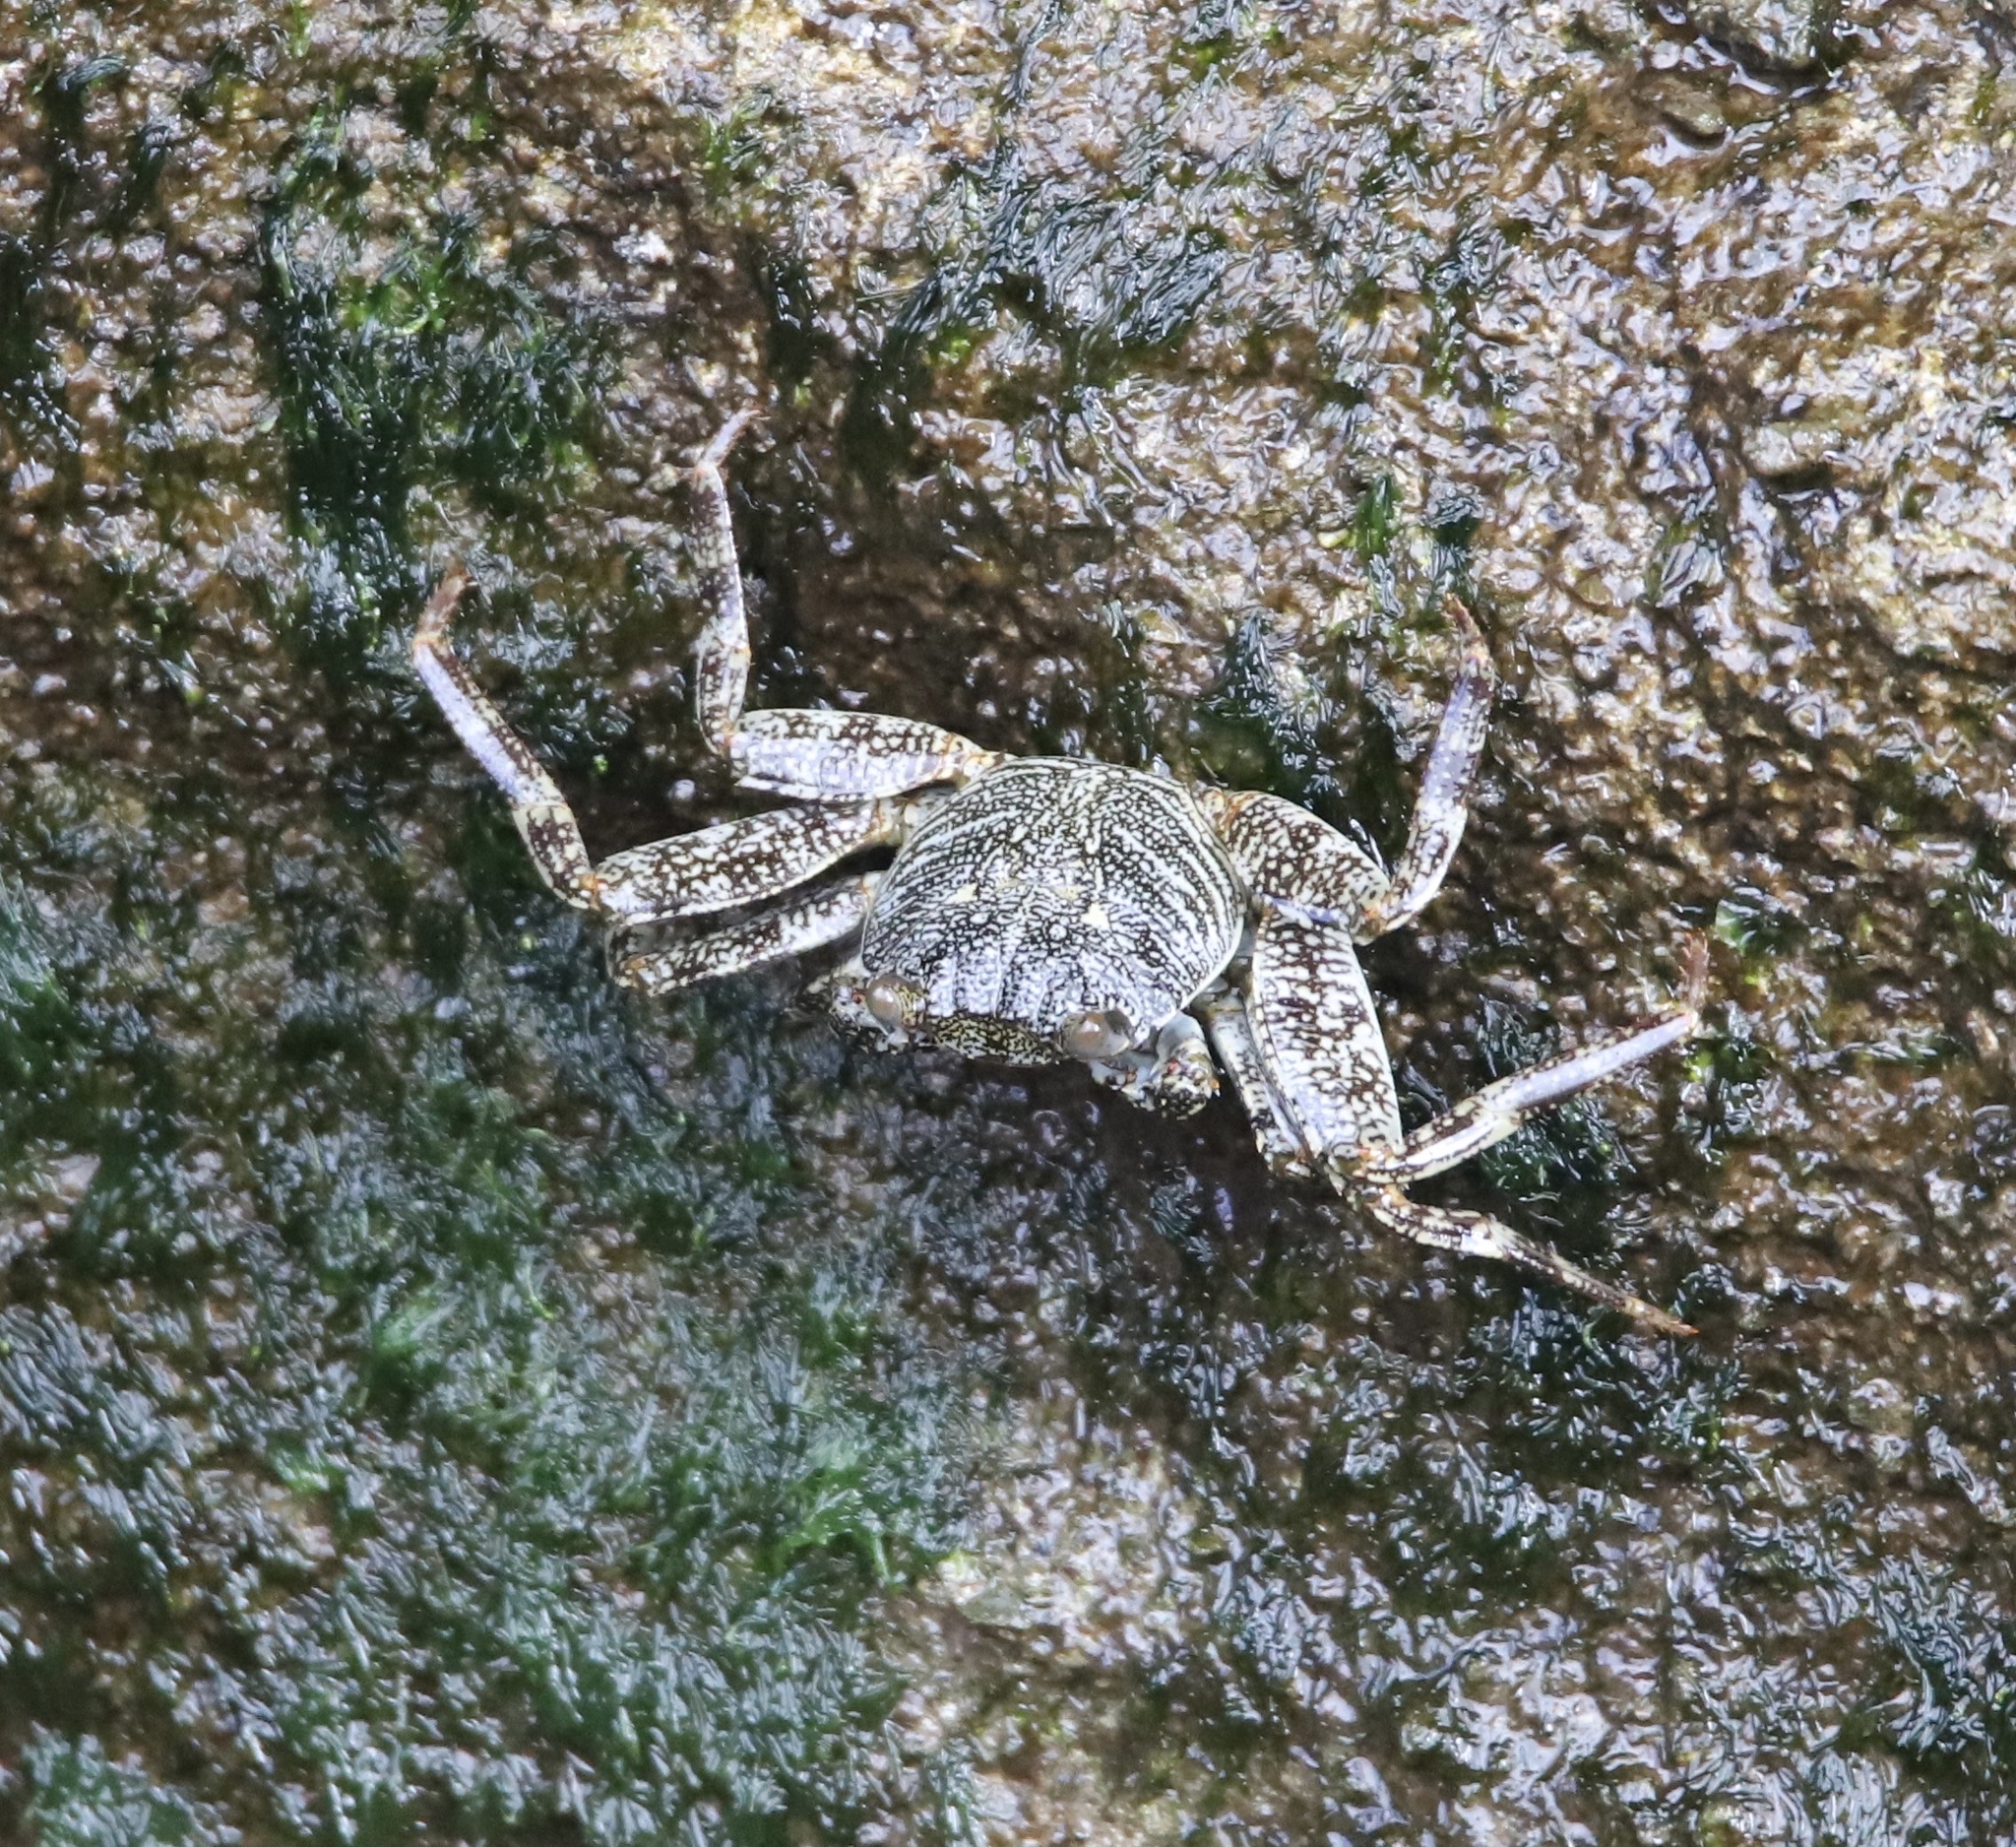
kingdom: Animalia
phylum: Arthropoda
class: Malacostraca
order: Decapoda
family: Grapsidae
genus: Grapsus
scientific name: Grapsus grapsus
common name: Sally lightfoot
